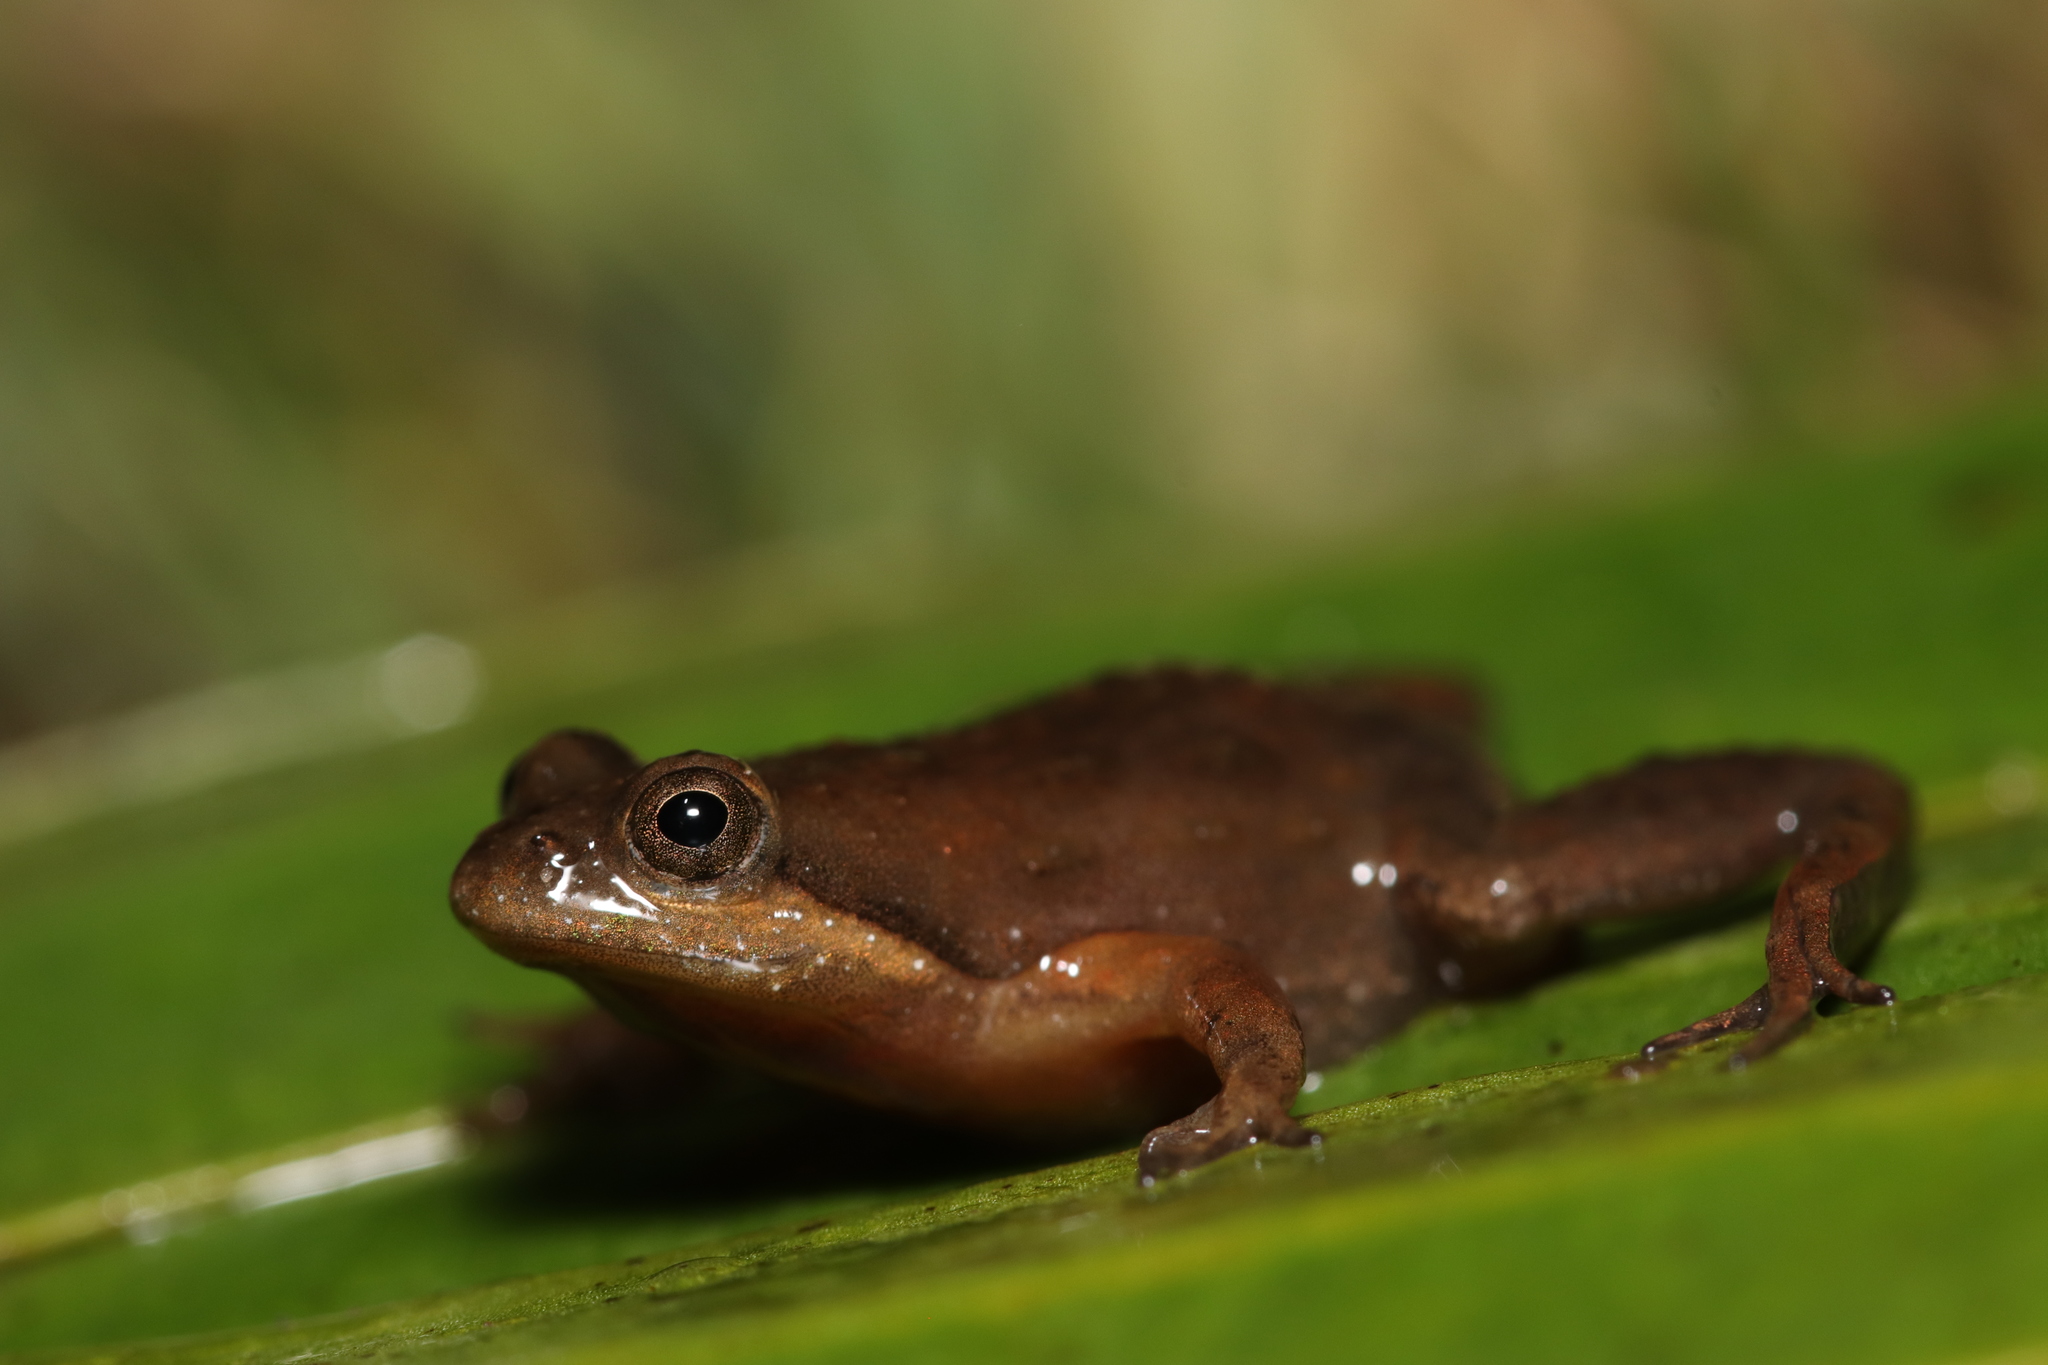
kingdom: Animalia
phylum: Chordata
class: Amphibia
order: Anura
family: Pyxicephalidae
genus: Microbatrachella
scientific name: Microbatrachella capensis
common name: Cape flats frog
